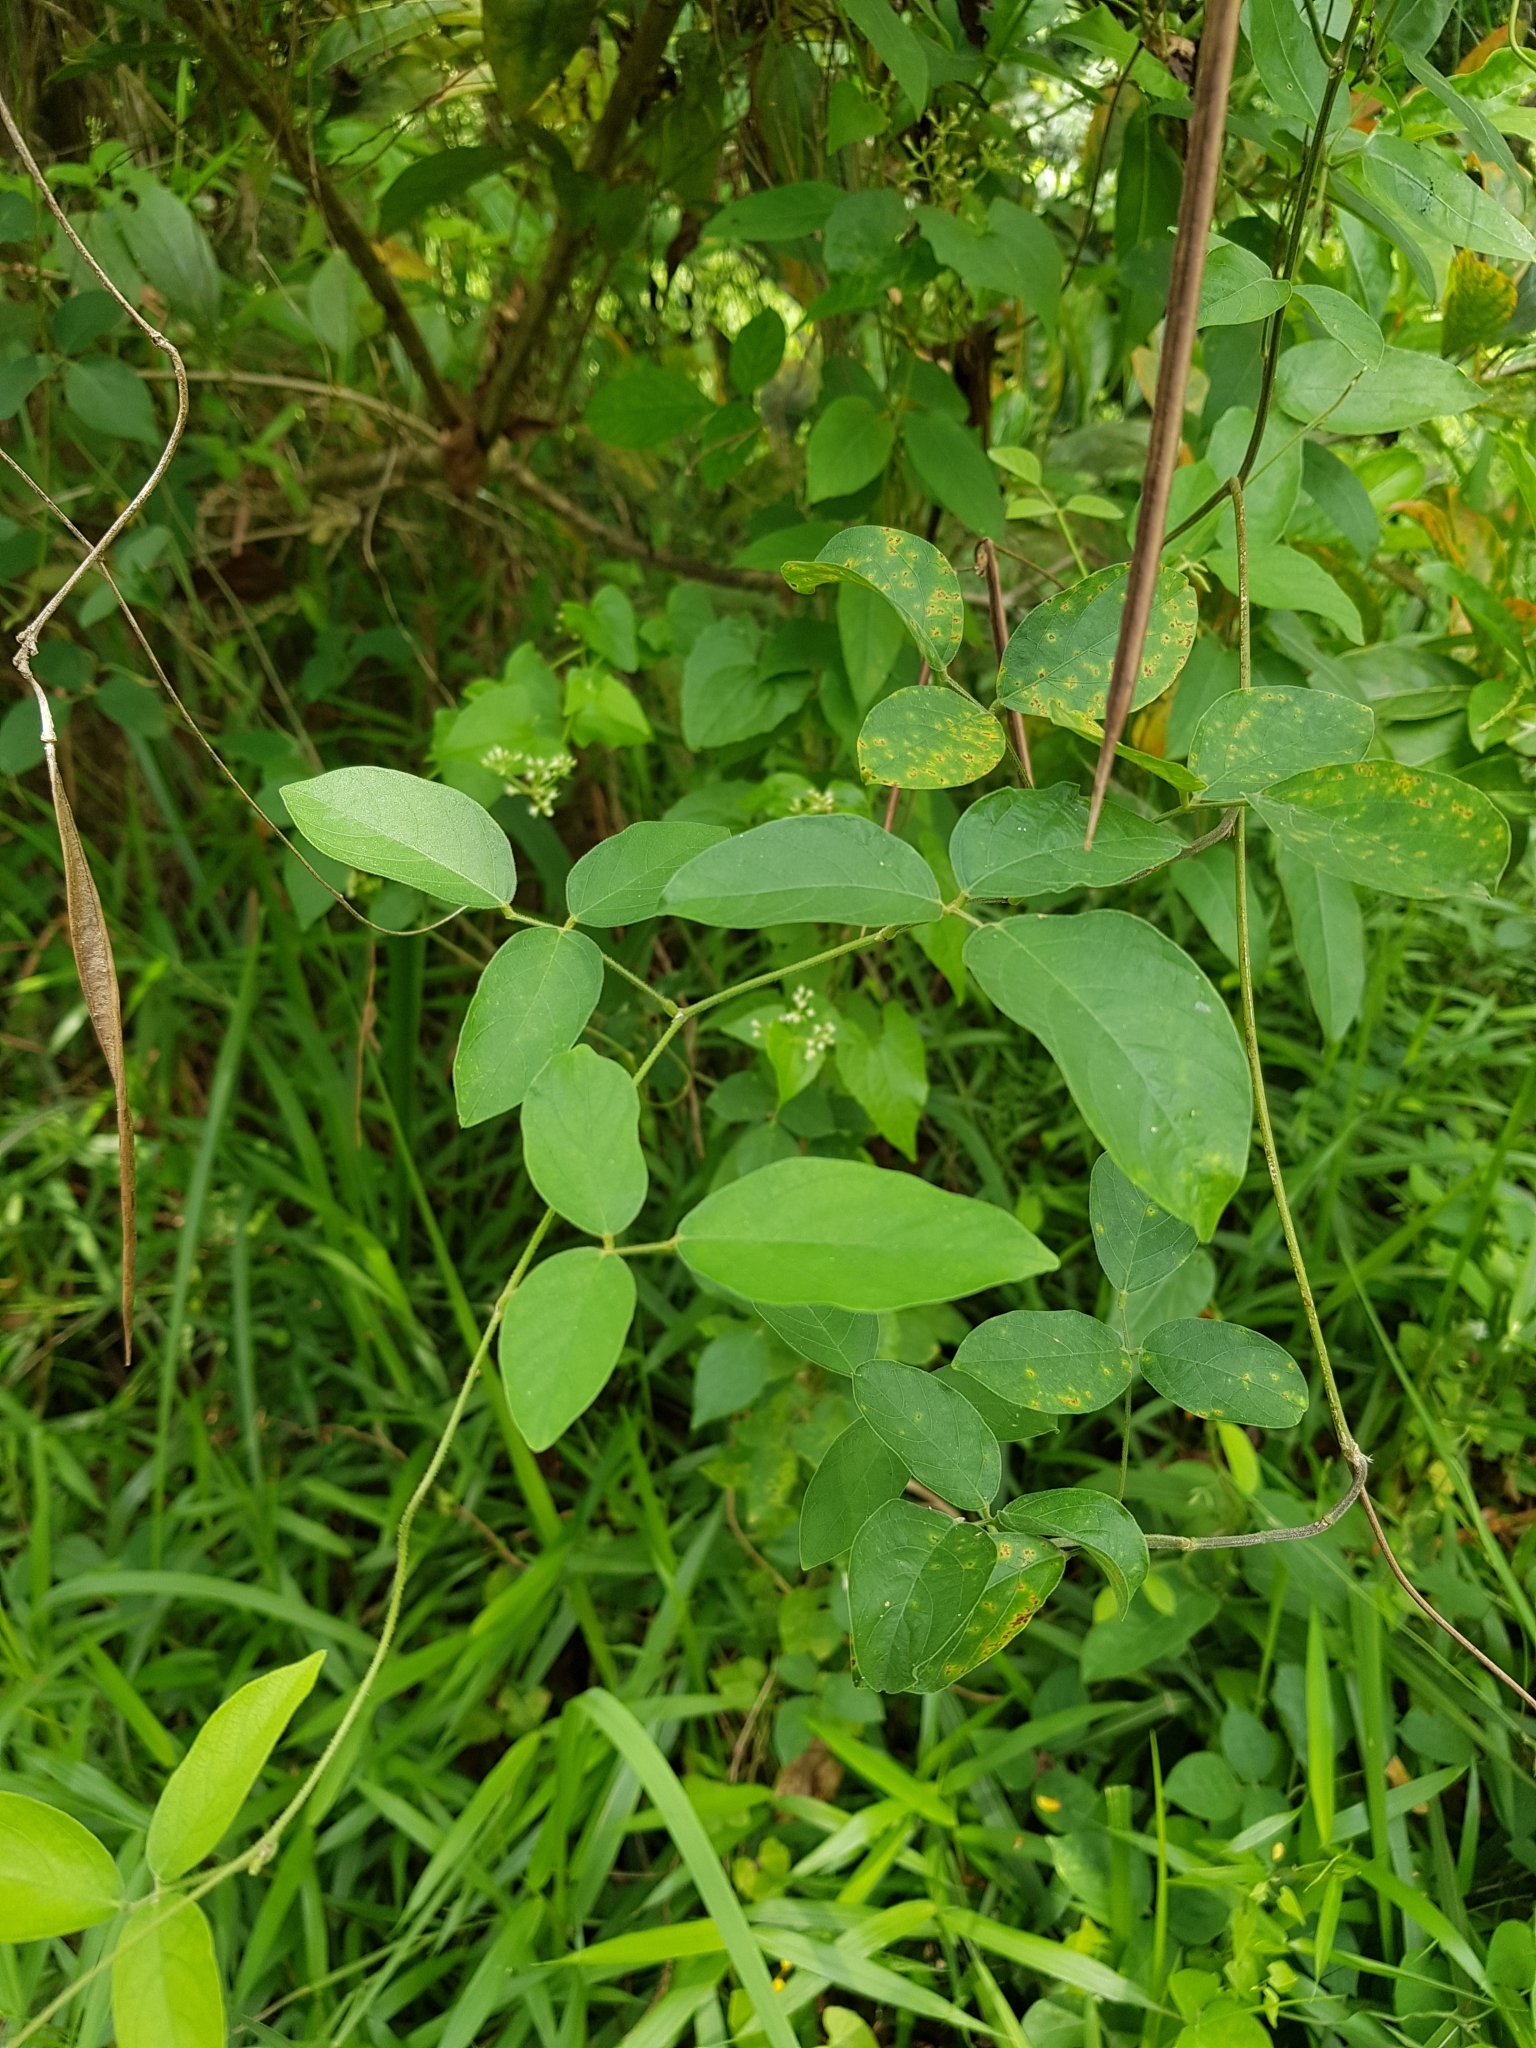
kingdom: Plantae
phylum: Tracheophyta
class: Magnoliopsida
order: Fabales
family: Fabaceae
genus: Centrosema
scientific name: Centrosema molle
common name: Soft butterfly pea
